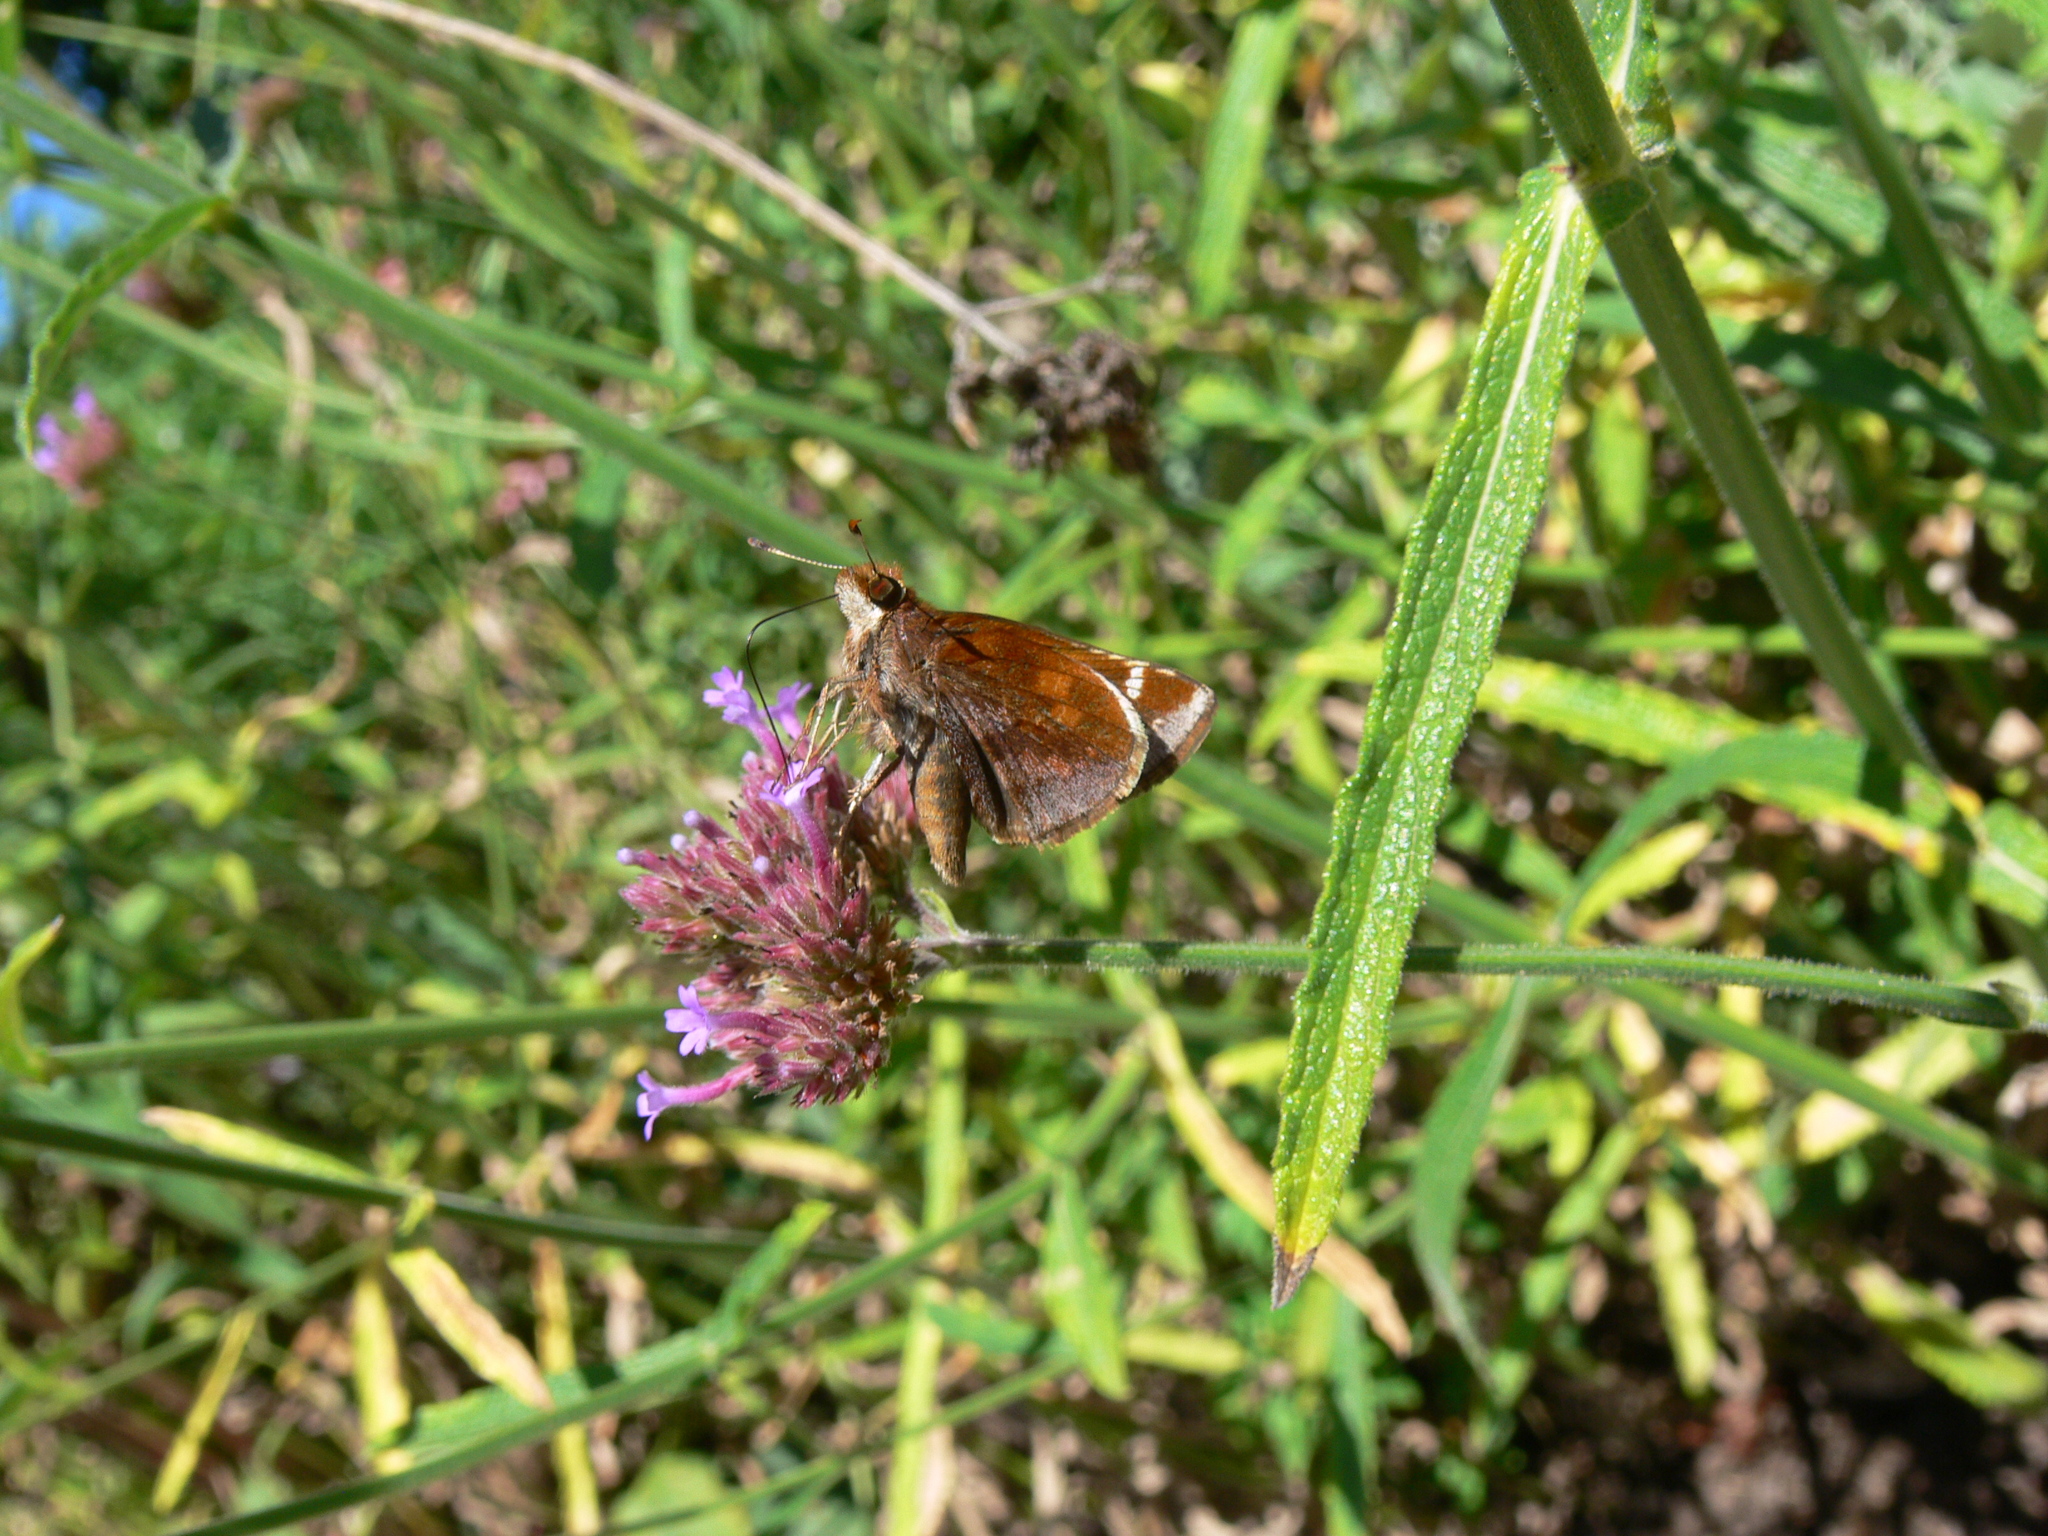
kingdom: Animalia
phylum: Arthropoda
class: Insecta
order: Lepidoptera
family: Hesperiidae
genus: Lon
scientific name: Lon zabulon
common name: Zabulon skipper
